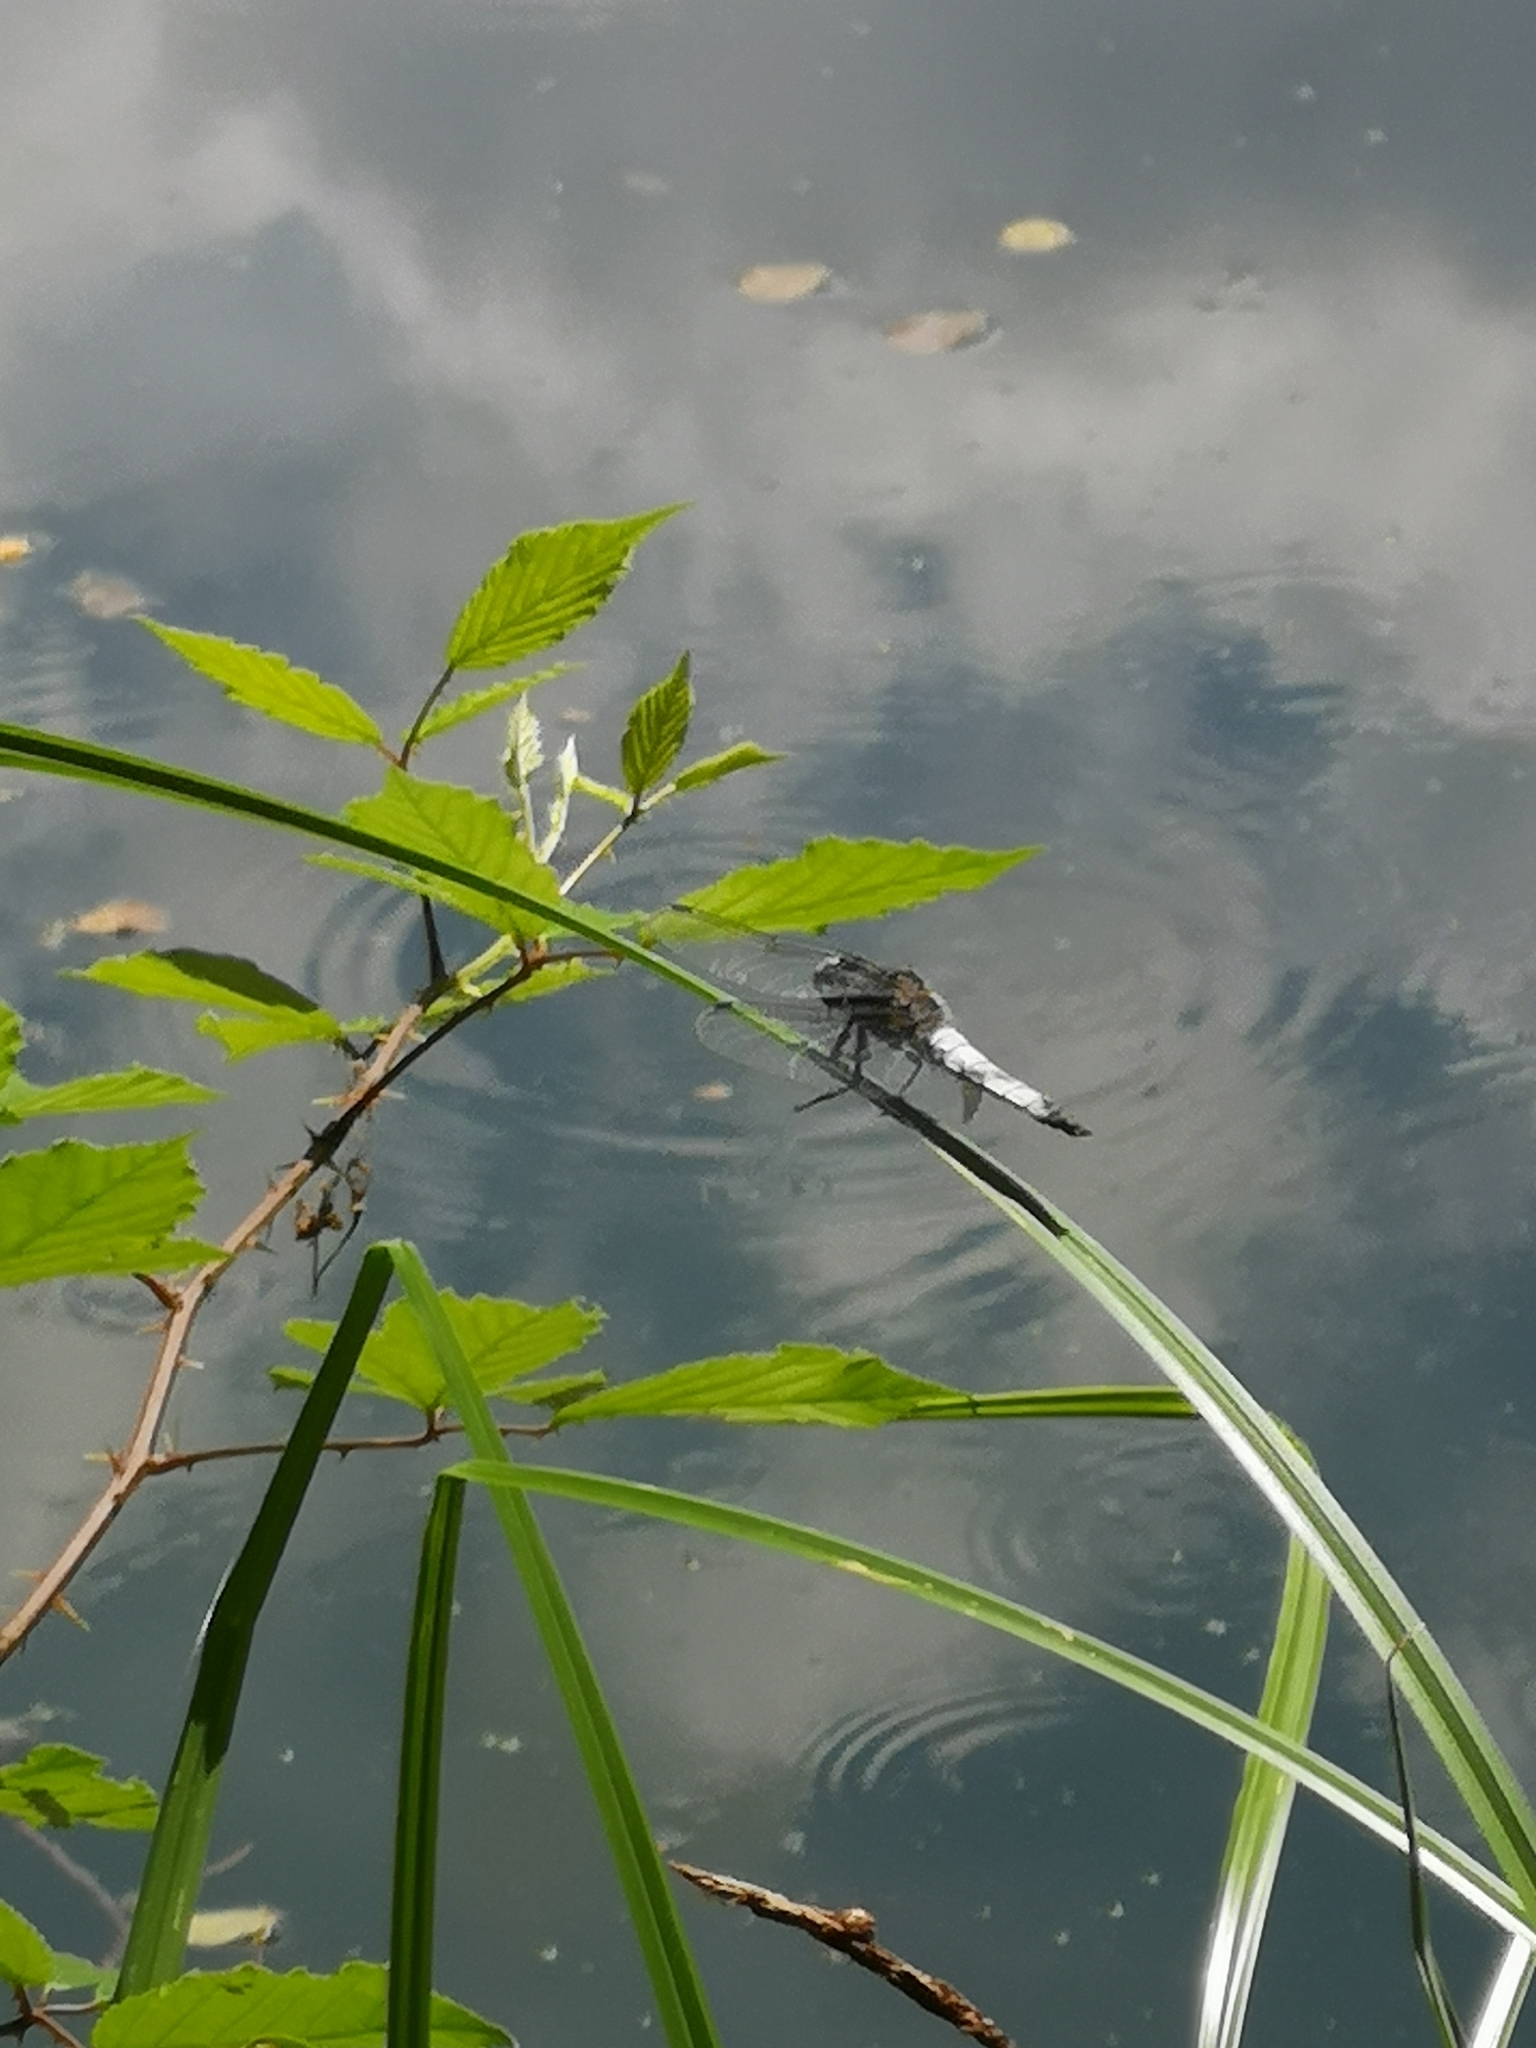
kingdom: Animalia
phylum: Arthropoda
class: Insecta
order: Odonata
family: Libellulidae
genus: Libellula
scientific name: Libellula fulva
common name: Blue chaser
